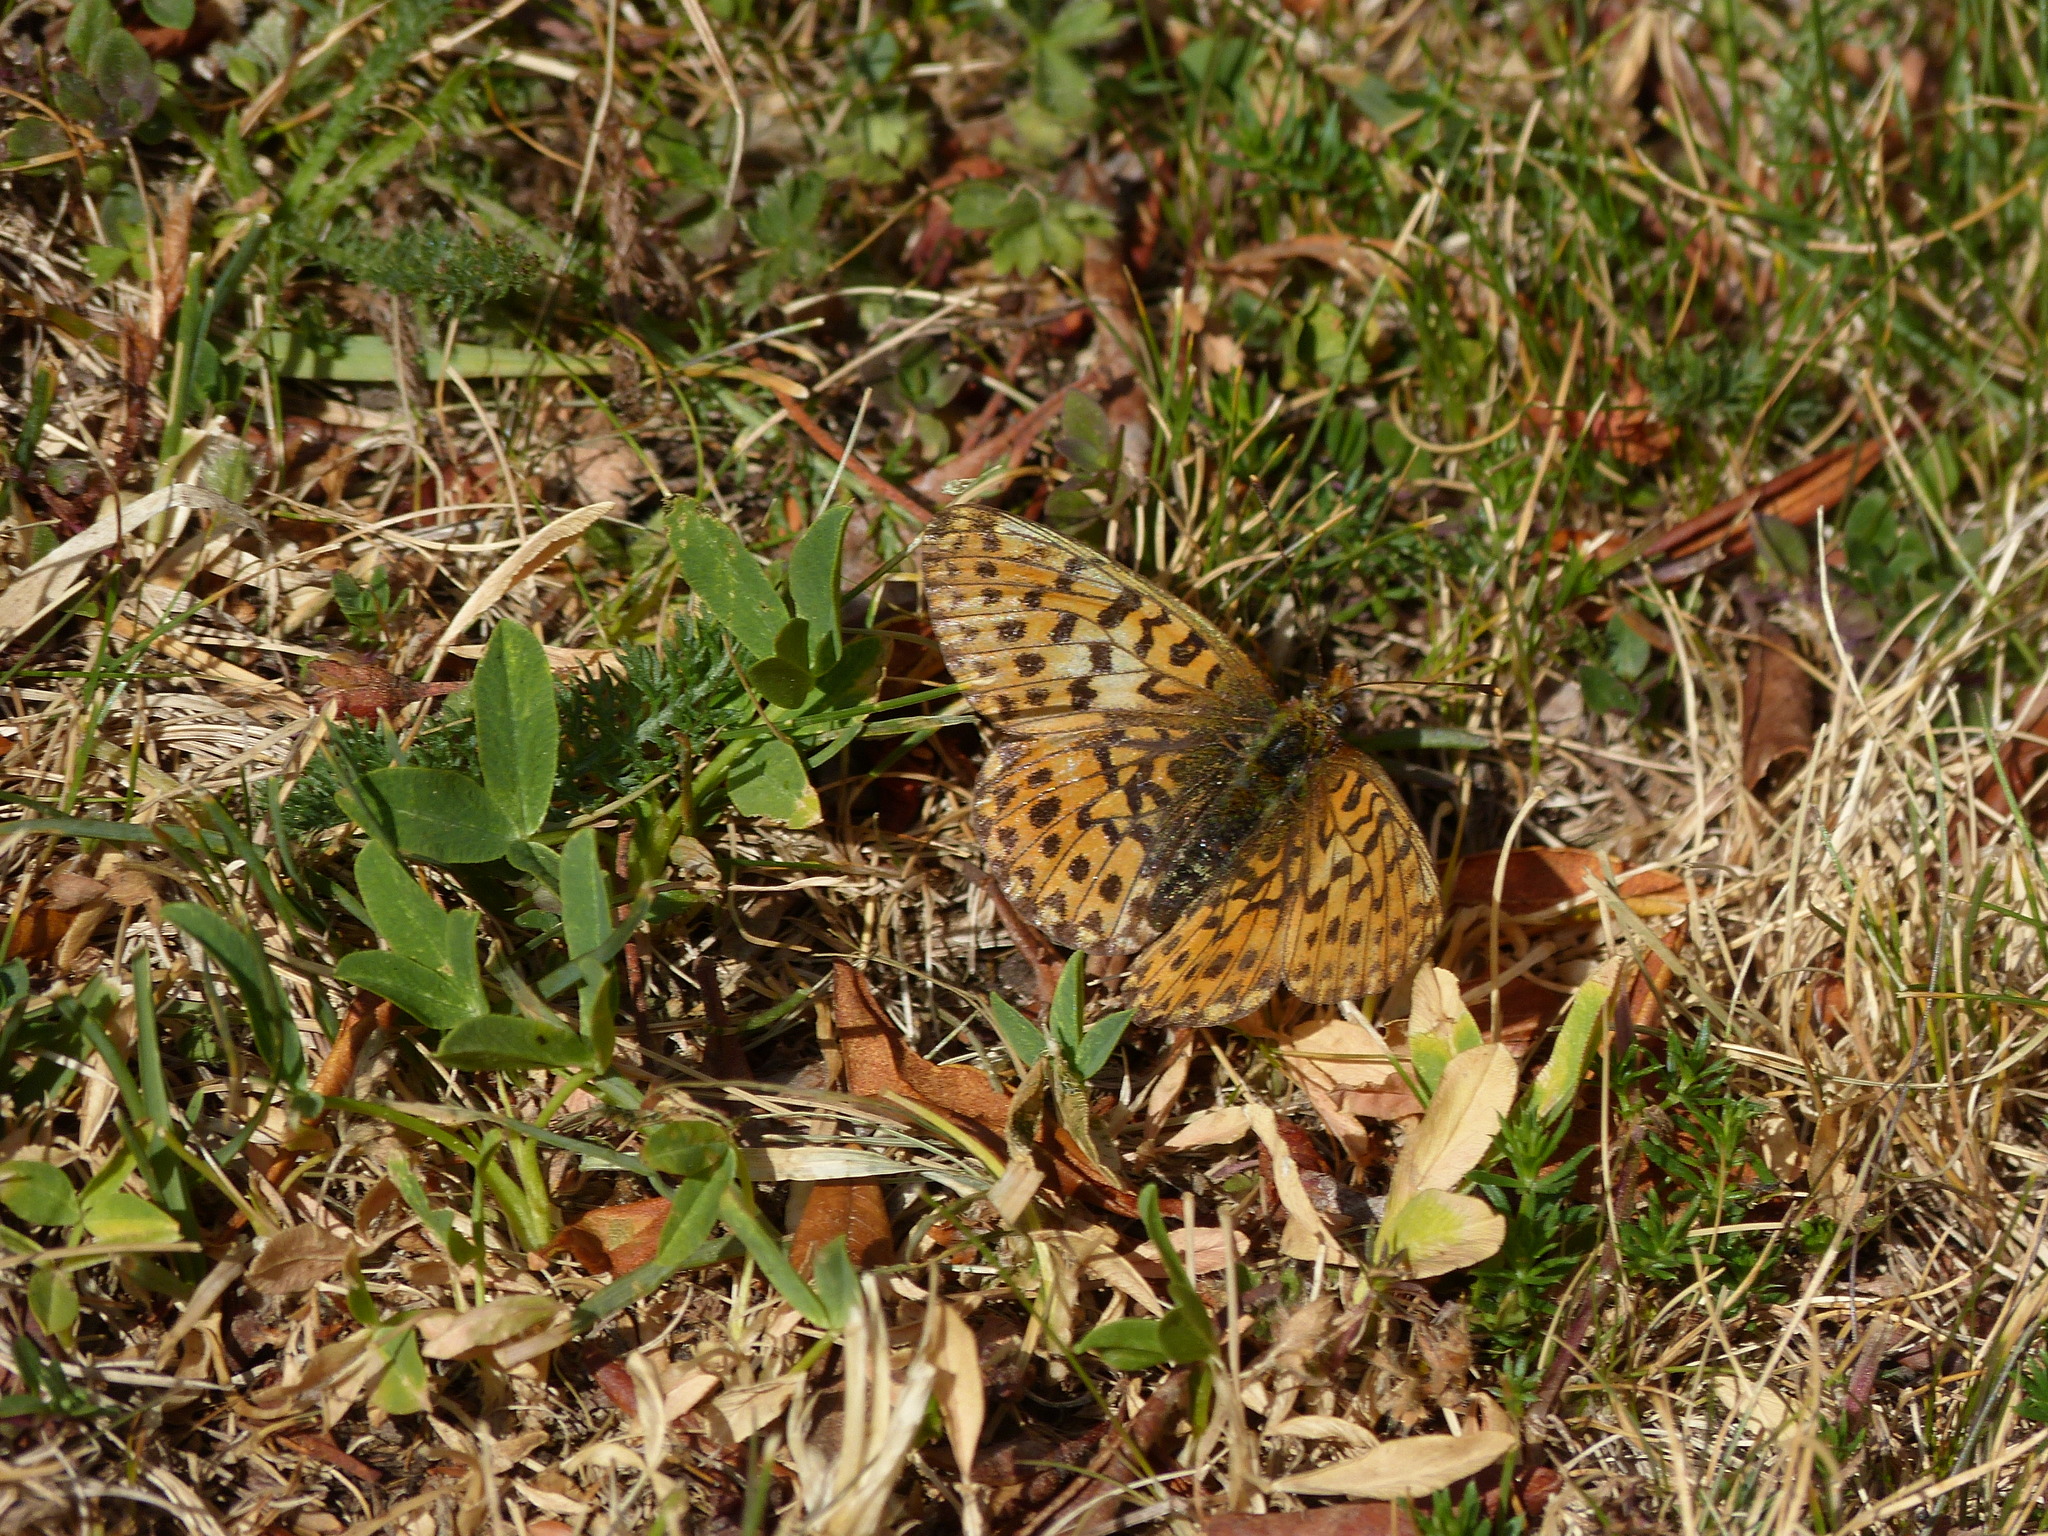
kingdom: Animalia
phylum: Arthropoda
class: Insecta
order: Lepidoptera
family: Nymphalidae
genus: Clossiana
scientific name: Clossiana euphrosyne
